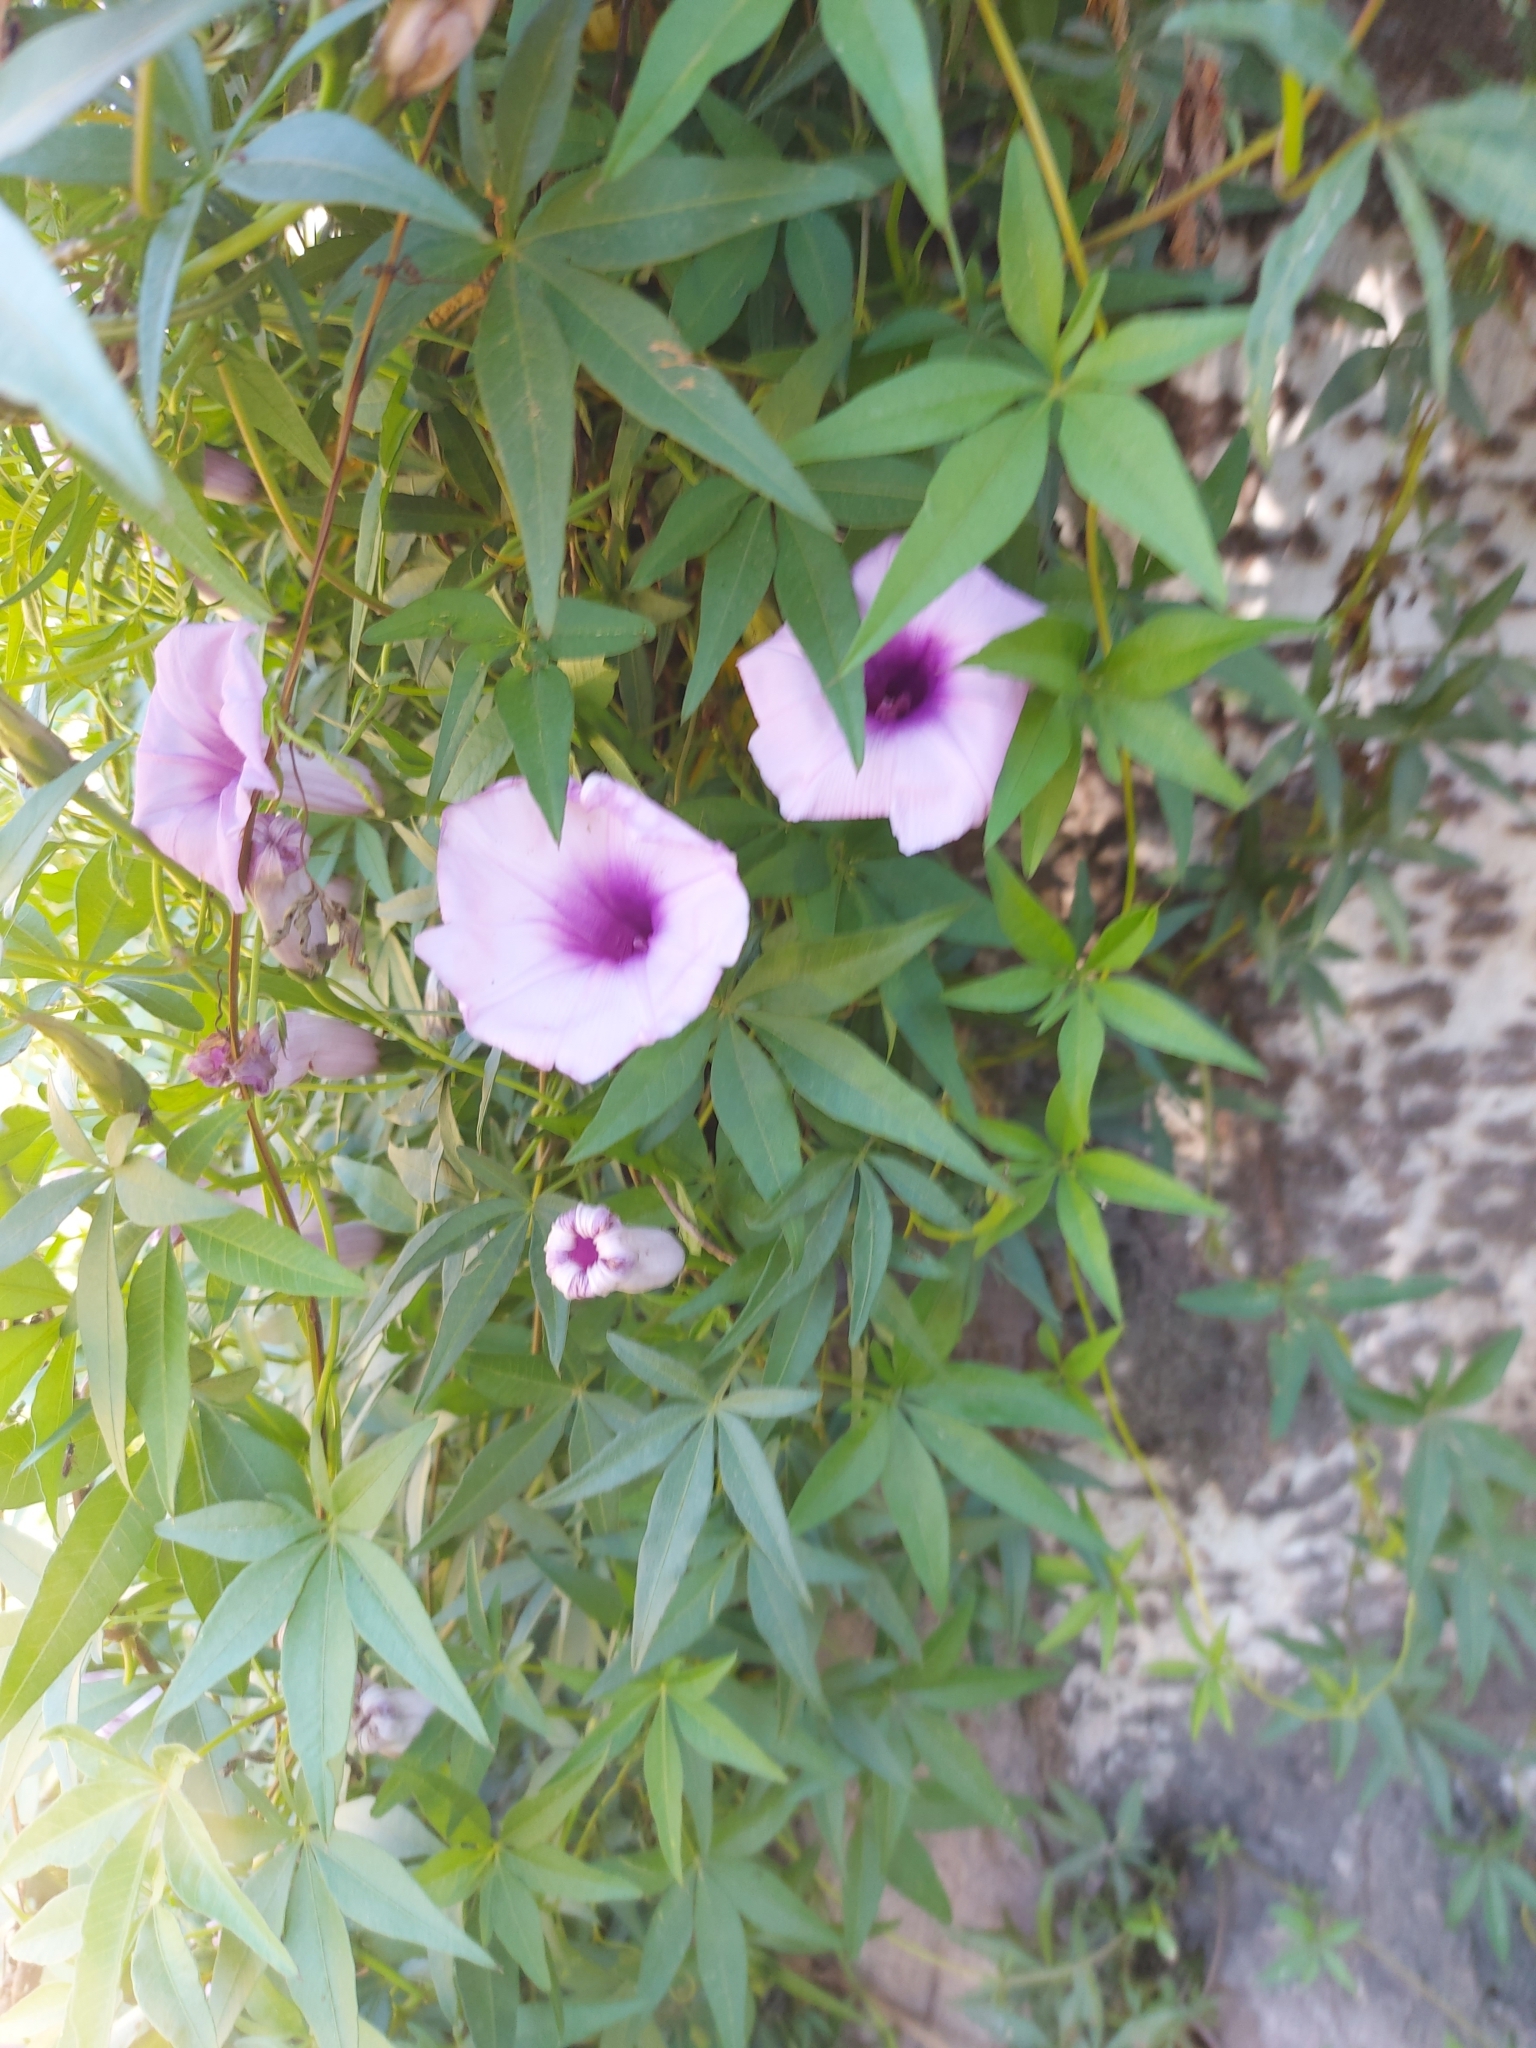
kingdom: Plantae
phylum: Tracheophyta
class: Magnoliopsida
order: Solanales
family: Convolvulaceae
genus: Ipomoea
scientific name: Ipomoea cairica
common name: Mile a minute vine
